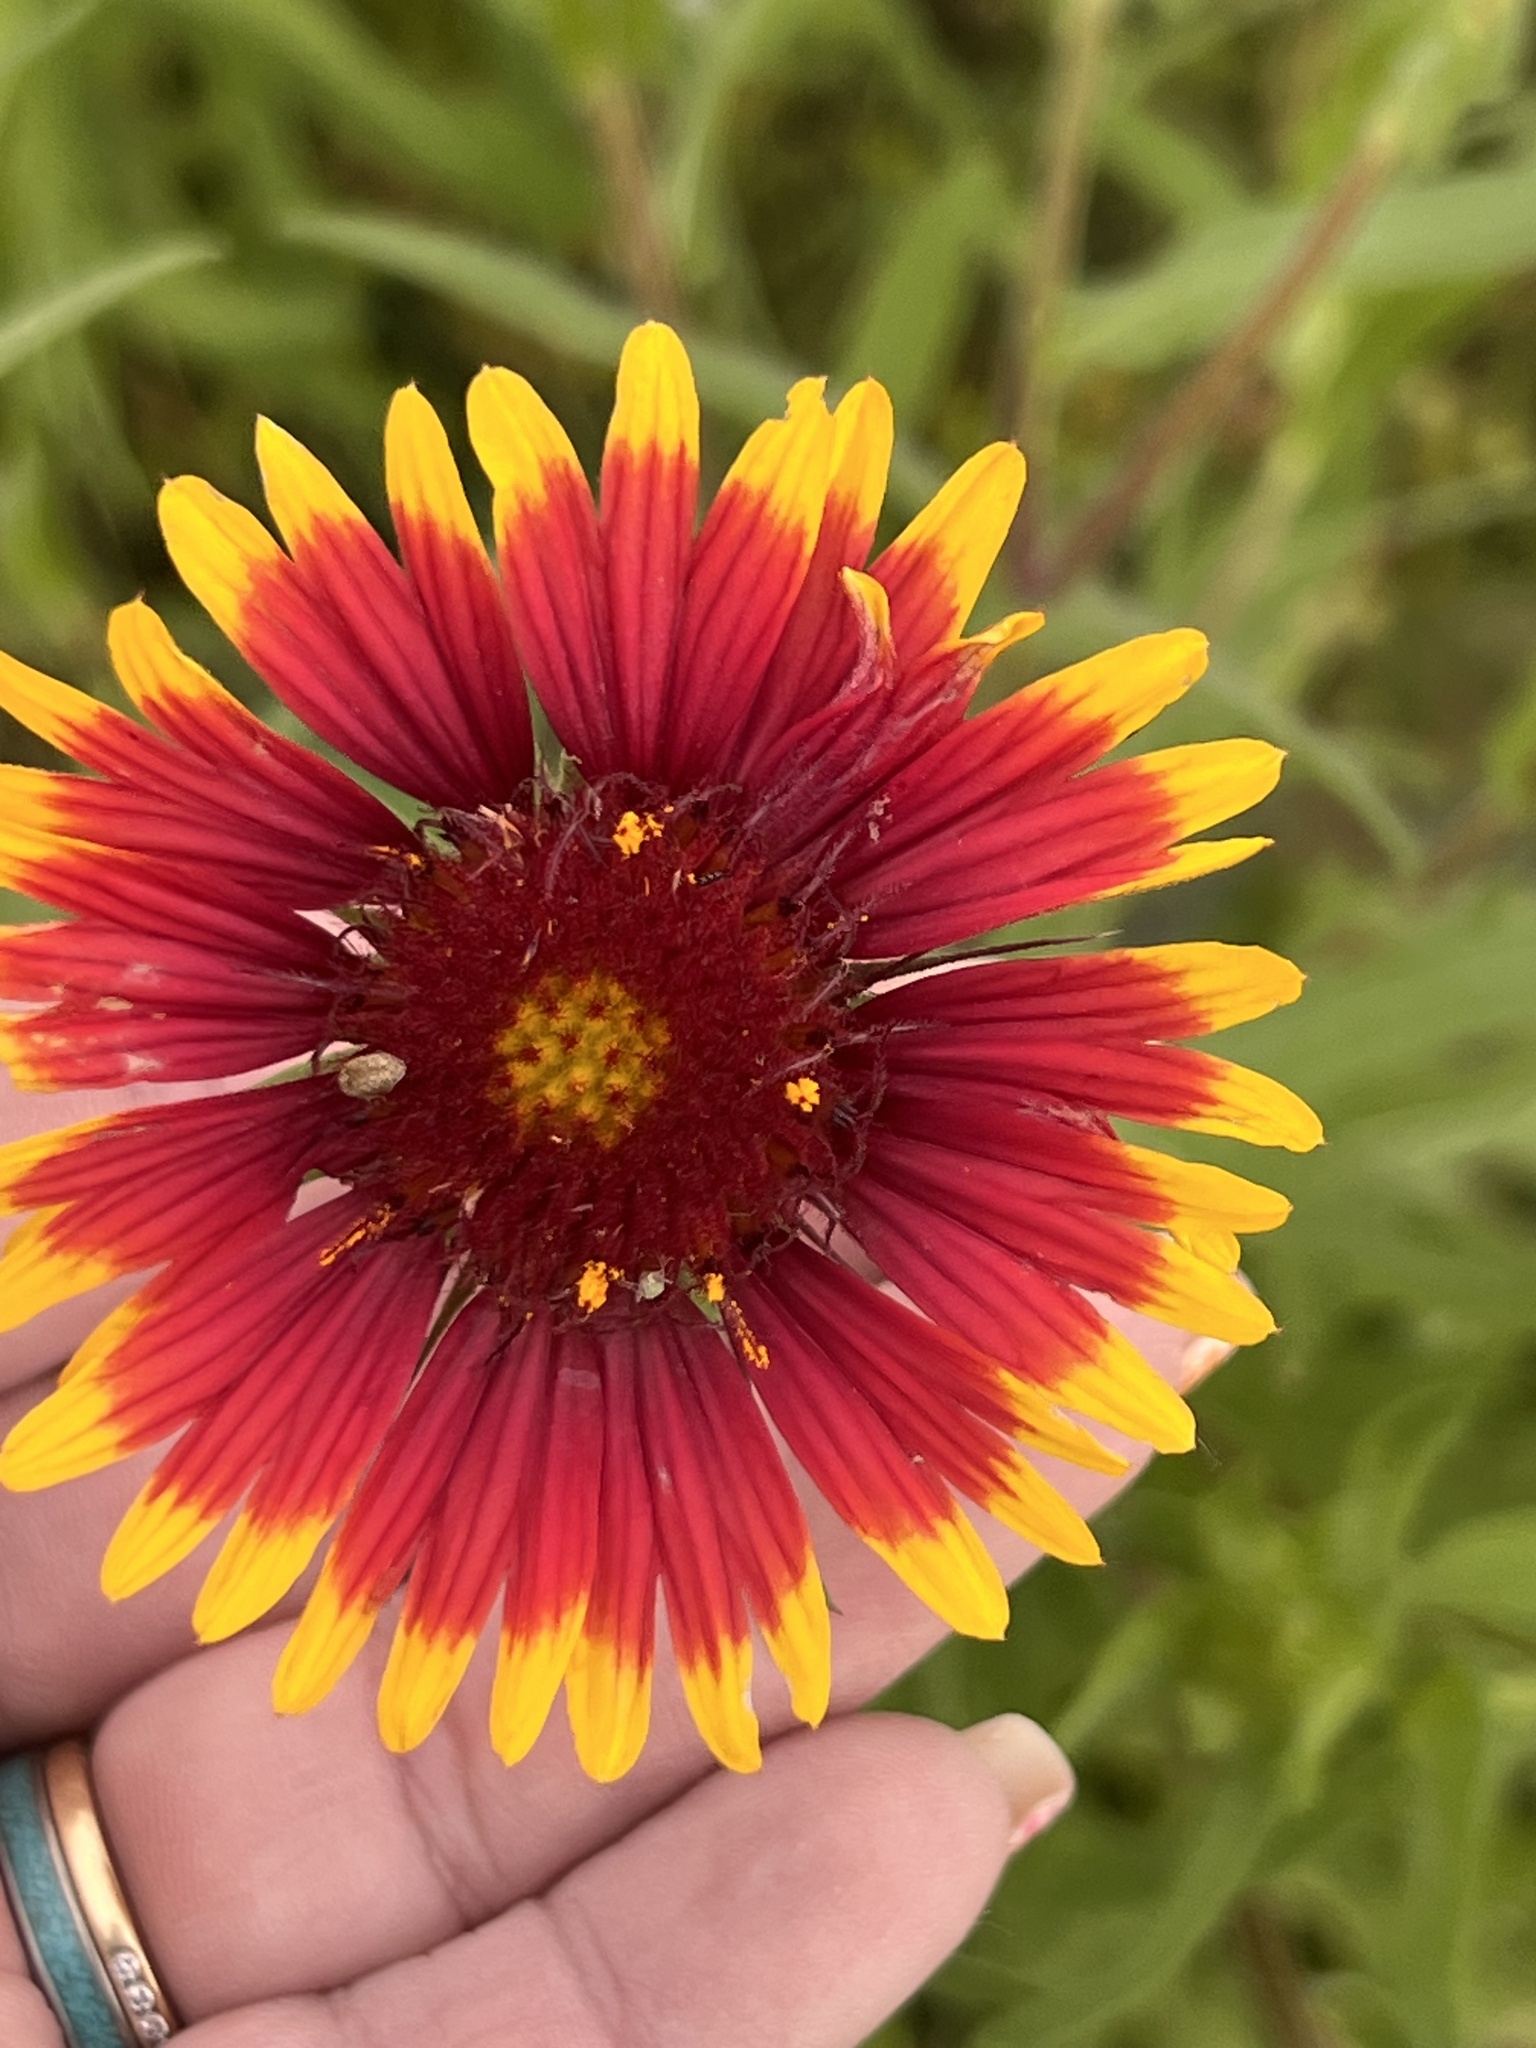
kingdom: Plantae
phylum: Tracheophyta
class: Magnoliopsida
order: Asterales
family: Asteraceae
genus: Gaillardia
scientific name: Gaillardia pulchella
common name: Firewheel
